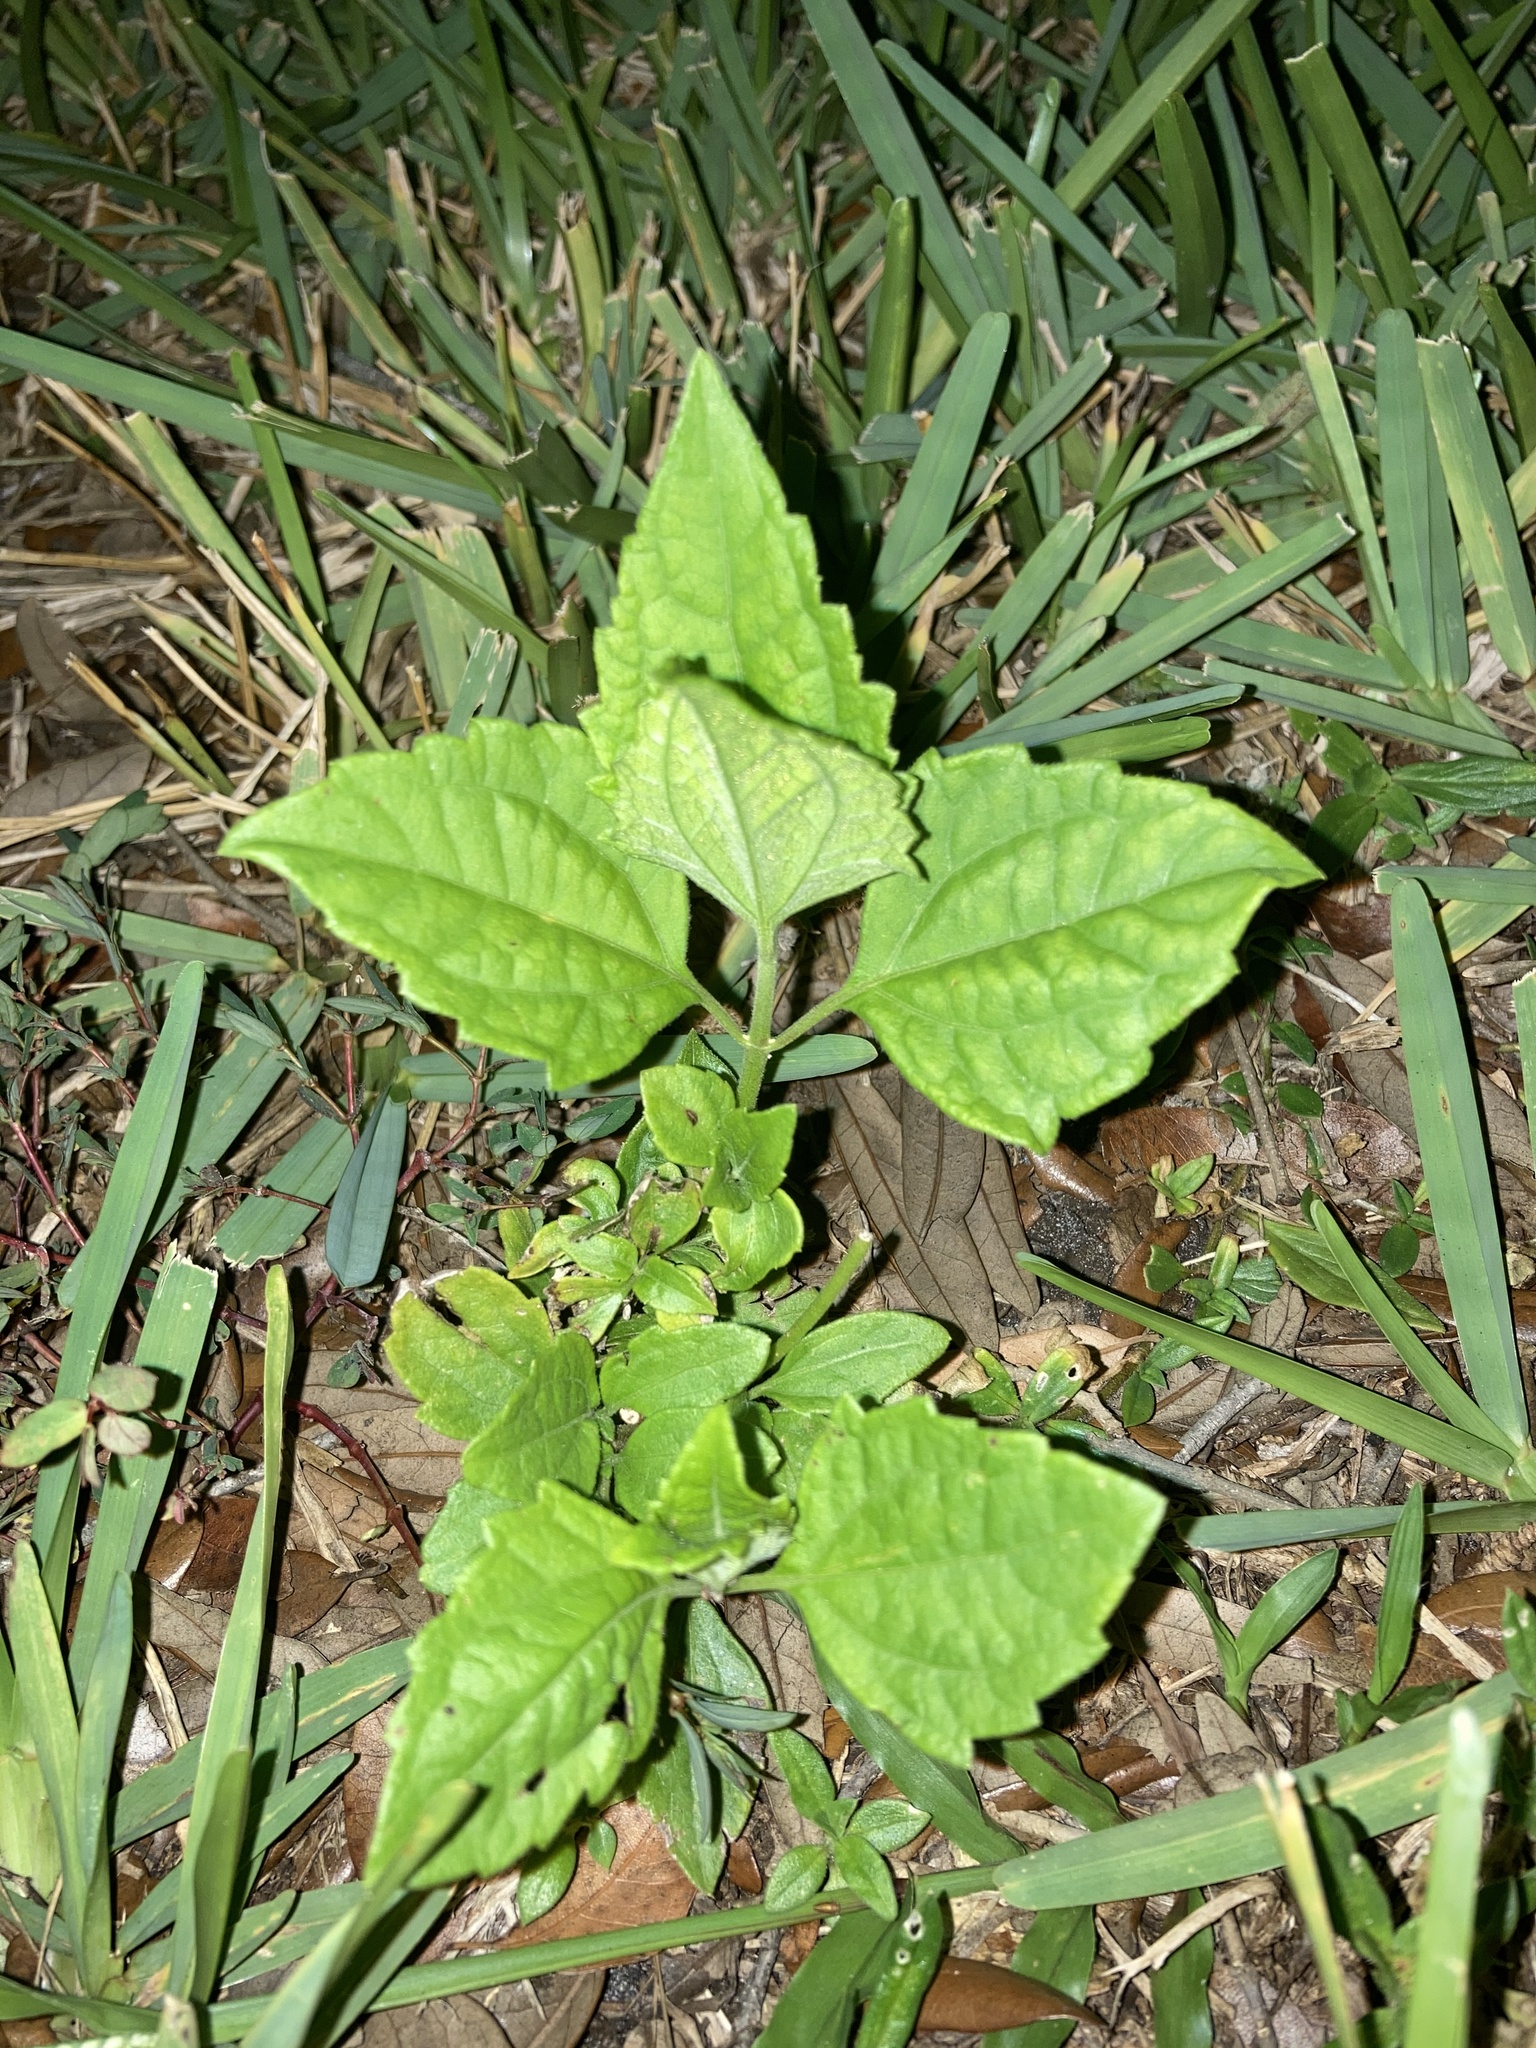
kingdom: Plantae
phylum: Tracheophyta
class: Magnoliopsida
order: Asterales
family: Asteraceae
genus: Chromolaena
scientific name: Chromolaena odorata
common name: Siamweed
